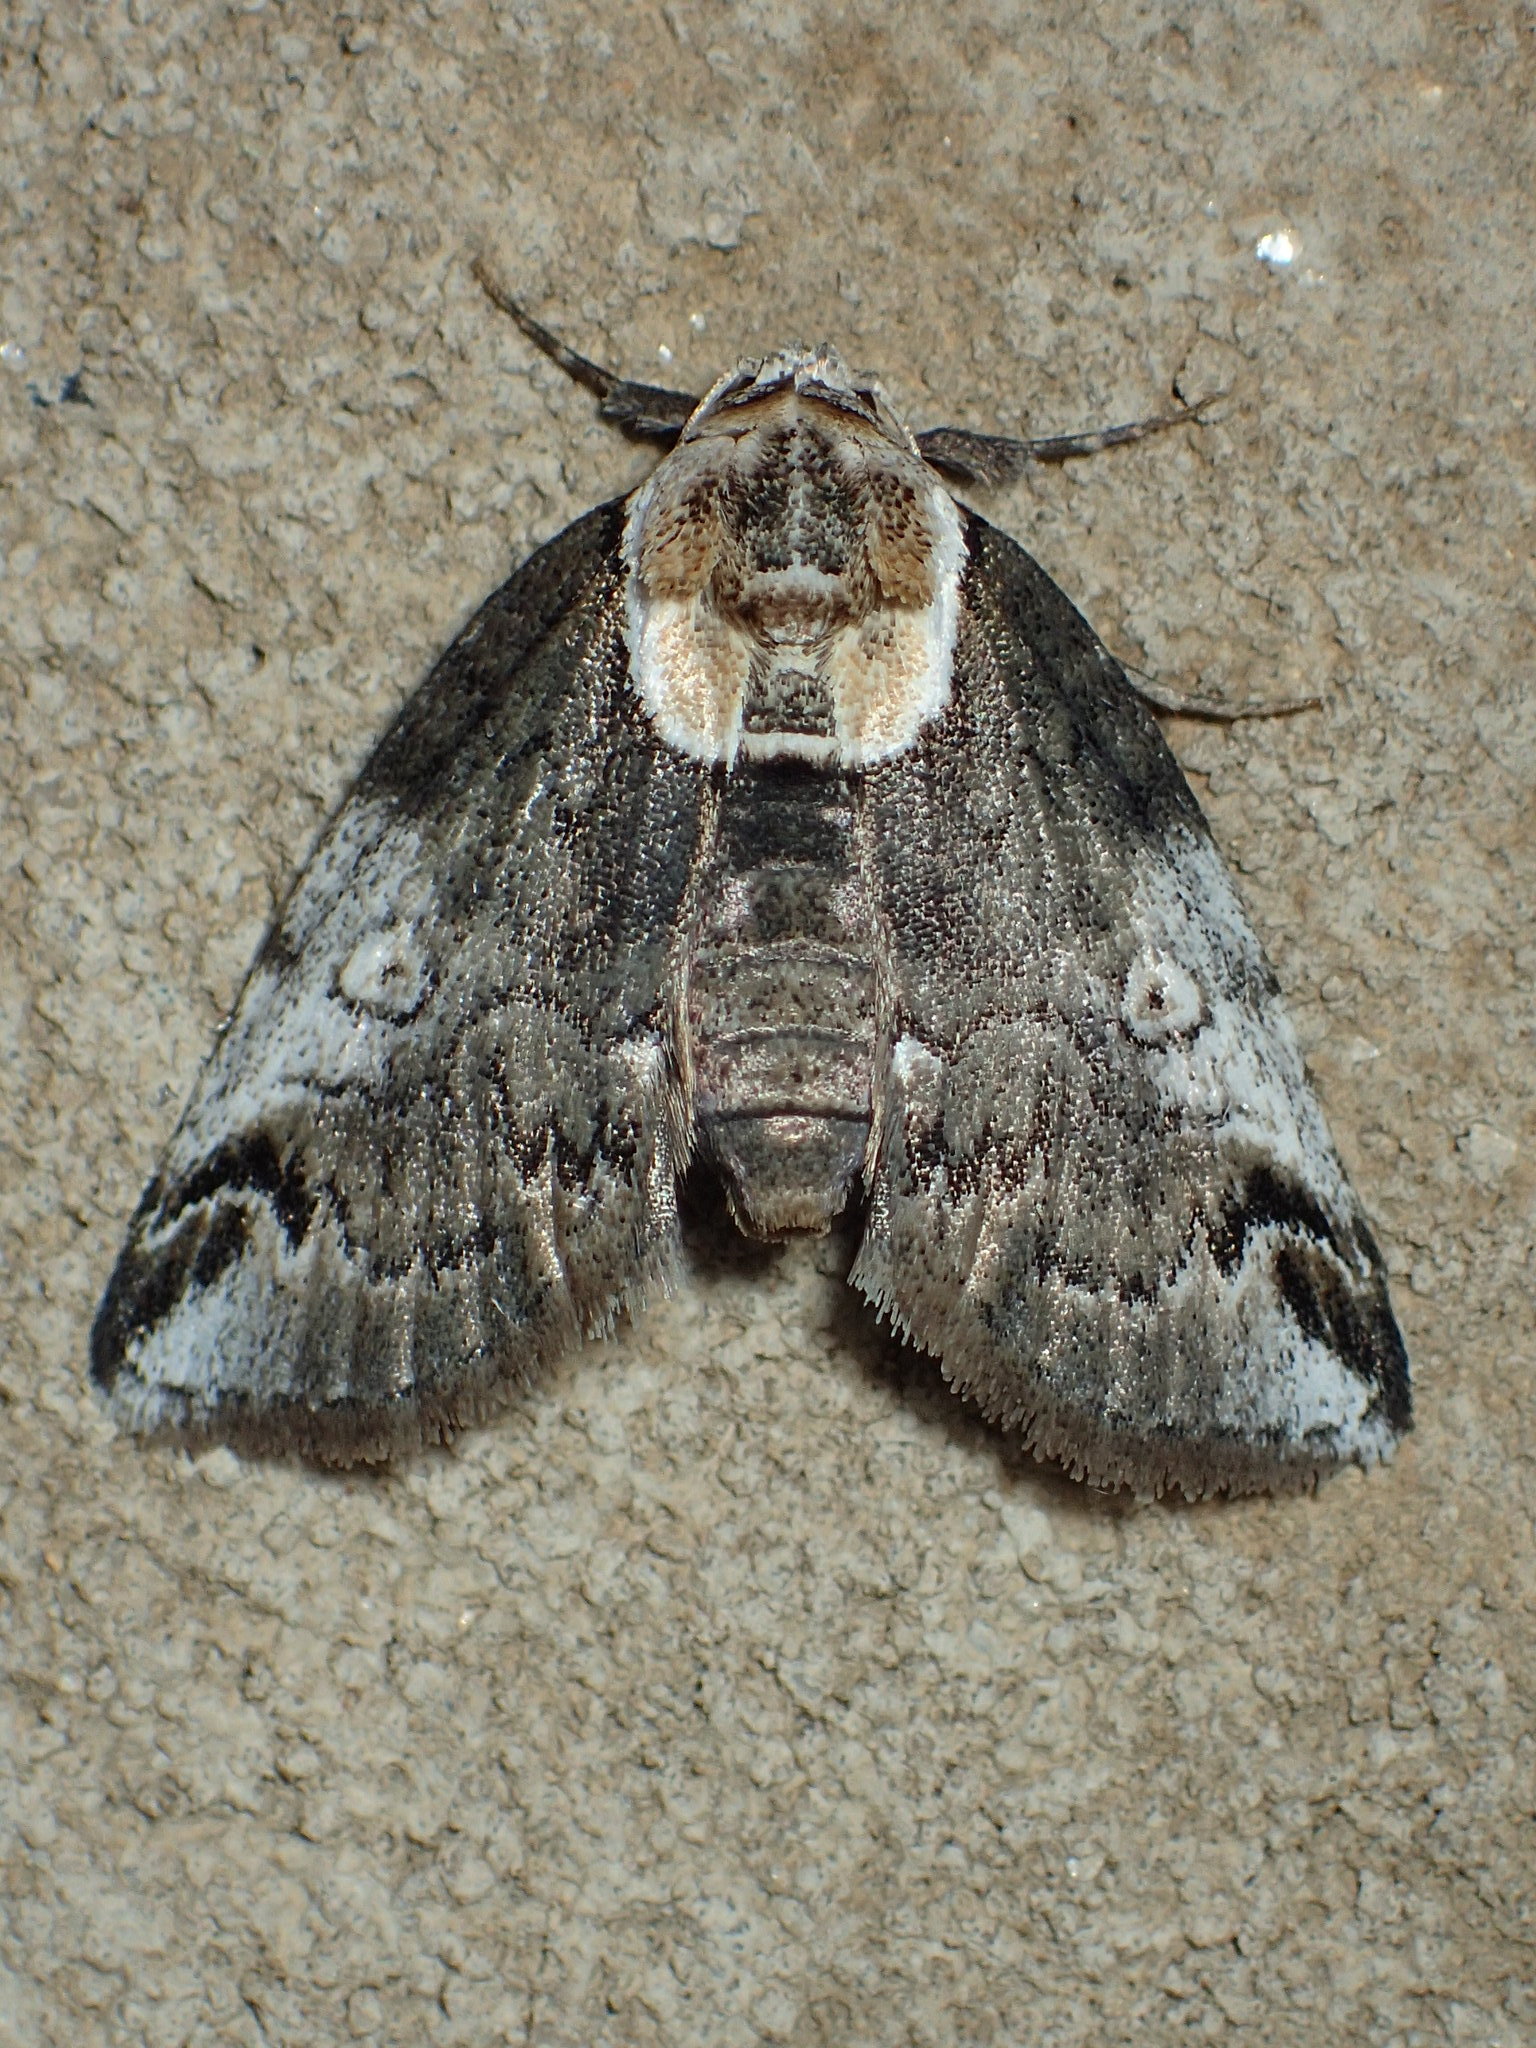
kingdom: Animalia
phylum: Arthropoda
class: Insecta
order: Lepidoptera
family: Nolidae
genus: Baileya
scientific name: Baileya ophthalmica
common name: Eyed baileya moth
